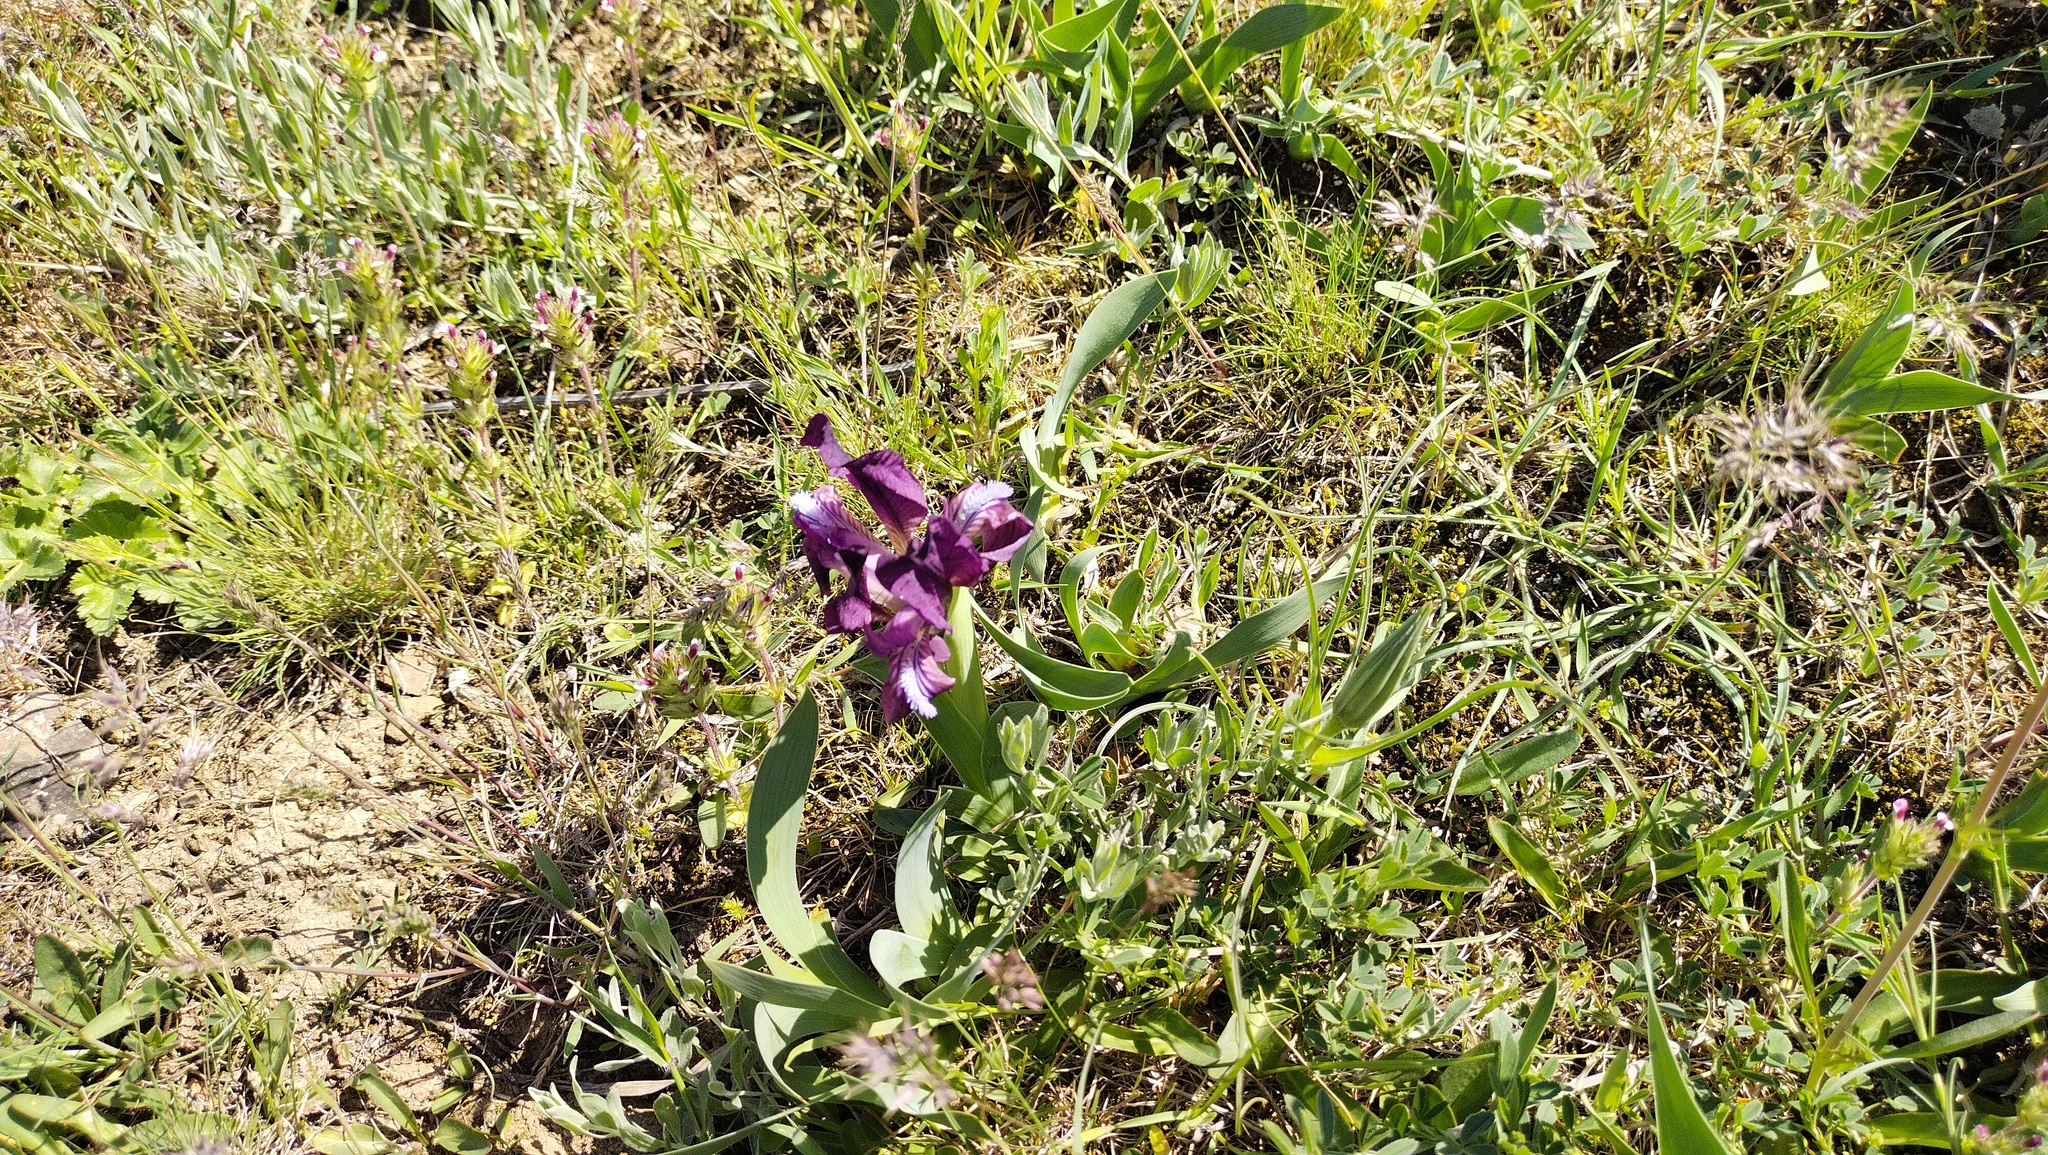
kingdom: Plantae
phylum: Tracheophyta
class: Liliopsida
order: Asparagales
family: Iridaceae
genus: Iris
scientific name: Iris pumila
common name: Dwarf iris
